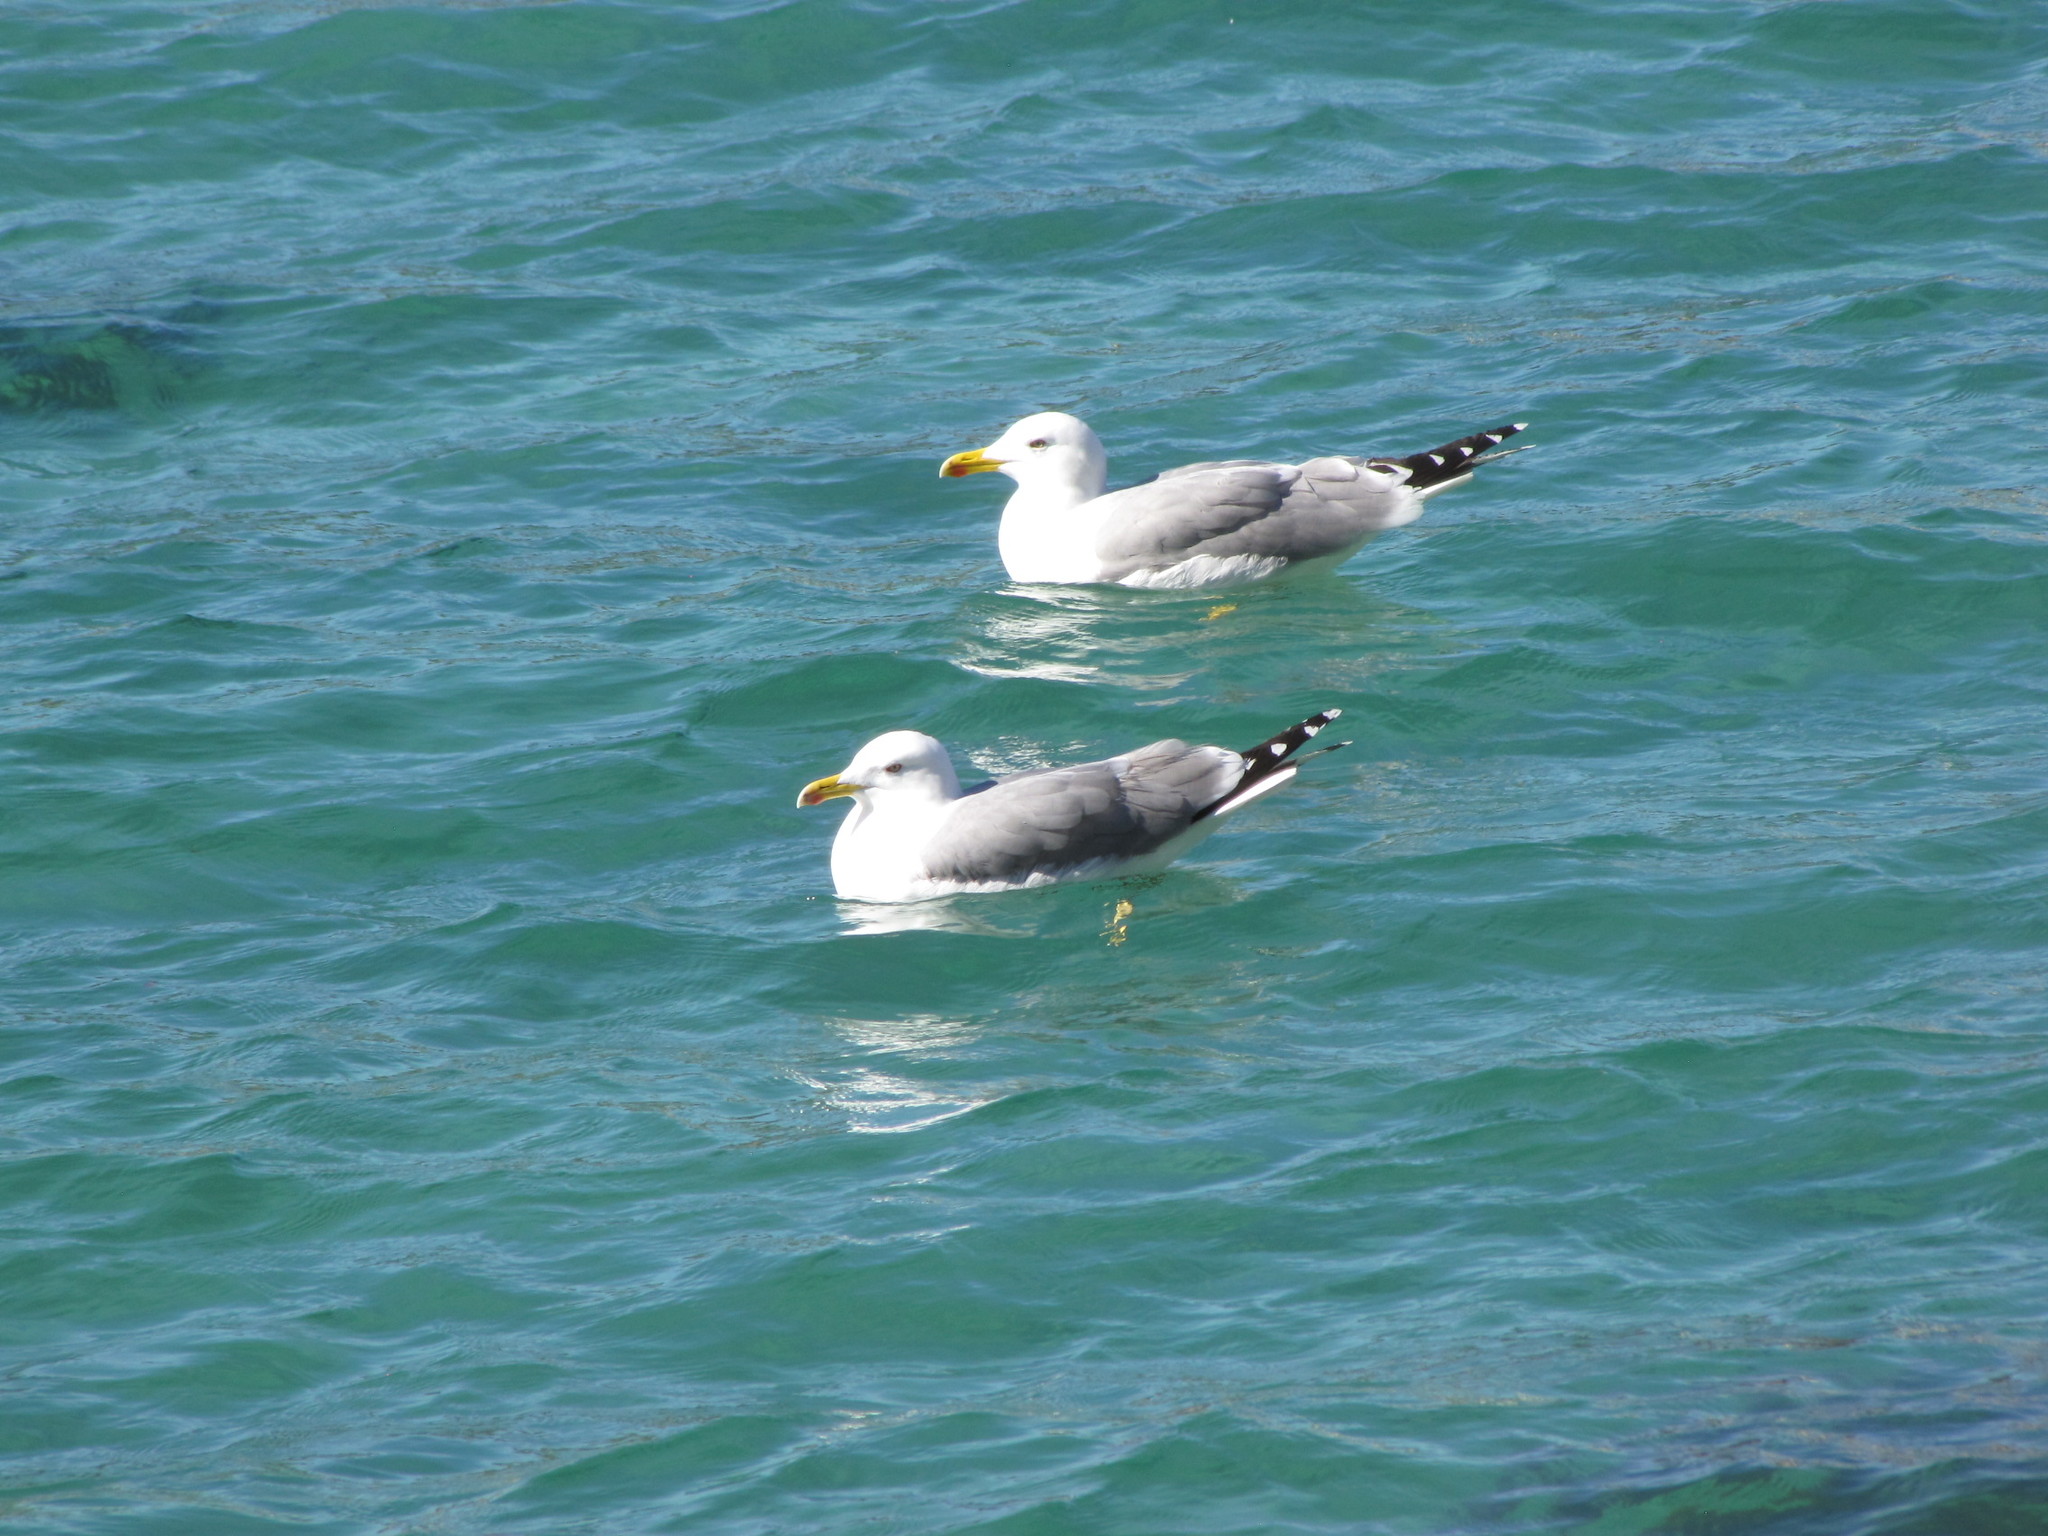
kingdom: Animalia
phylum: Chordata
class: Aves
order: Charadriiformes
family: Laridae
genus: Larus
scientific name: Larus michahellis
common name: Yellow-legged gull
